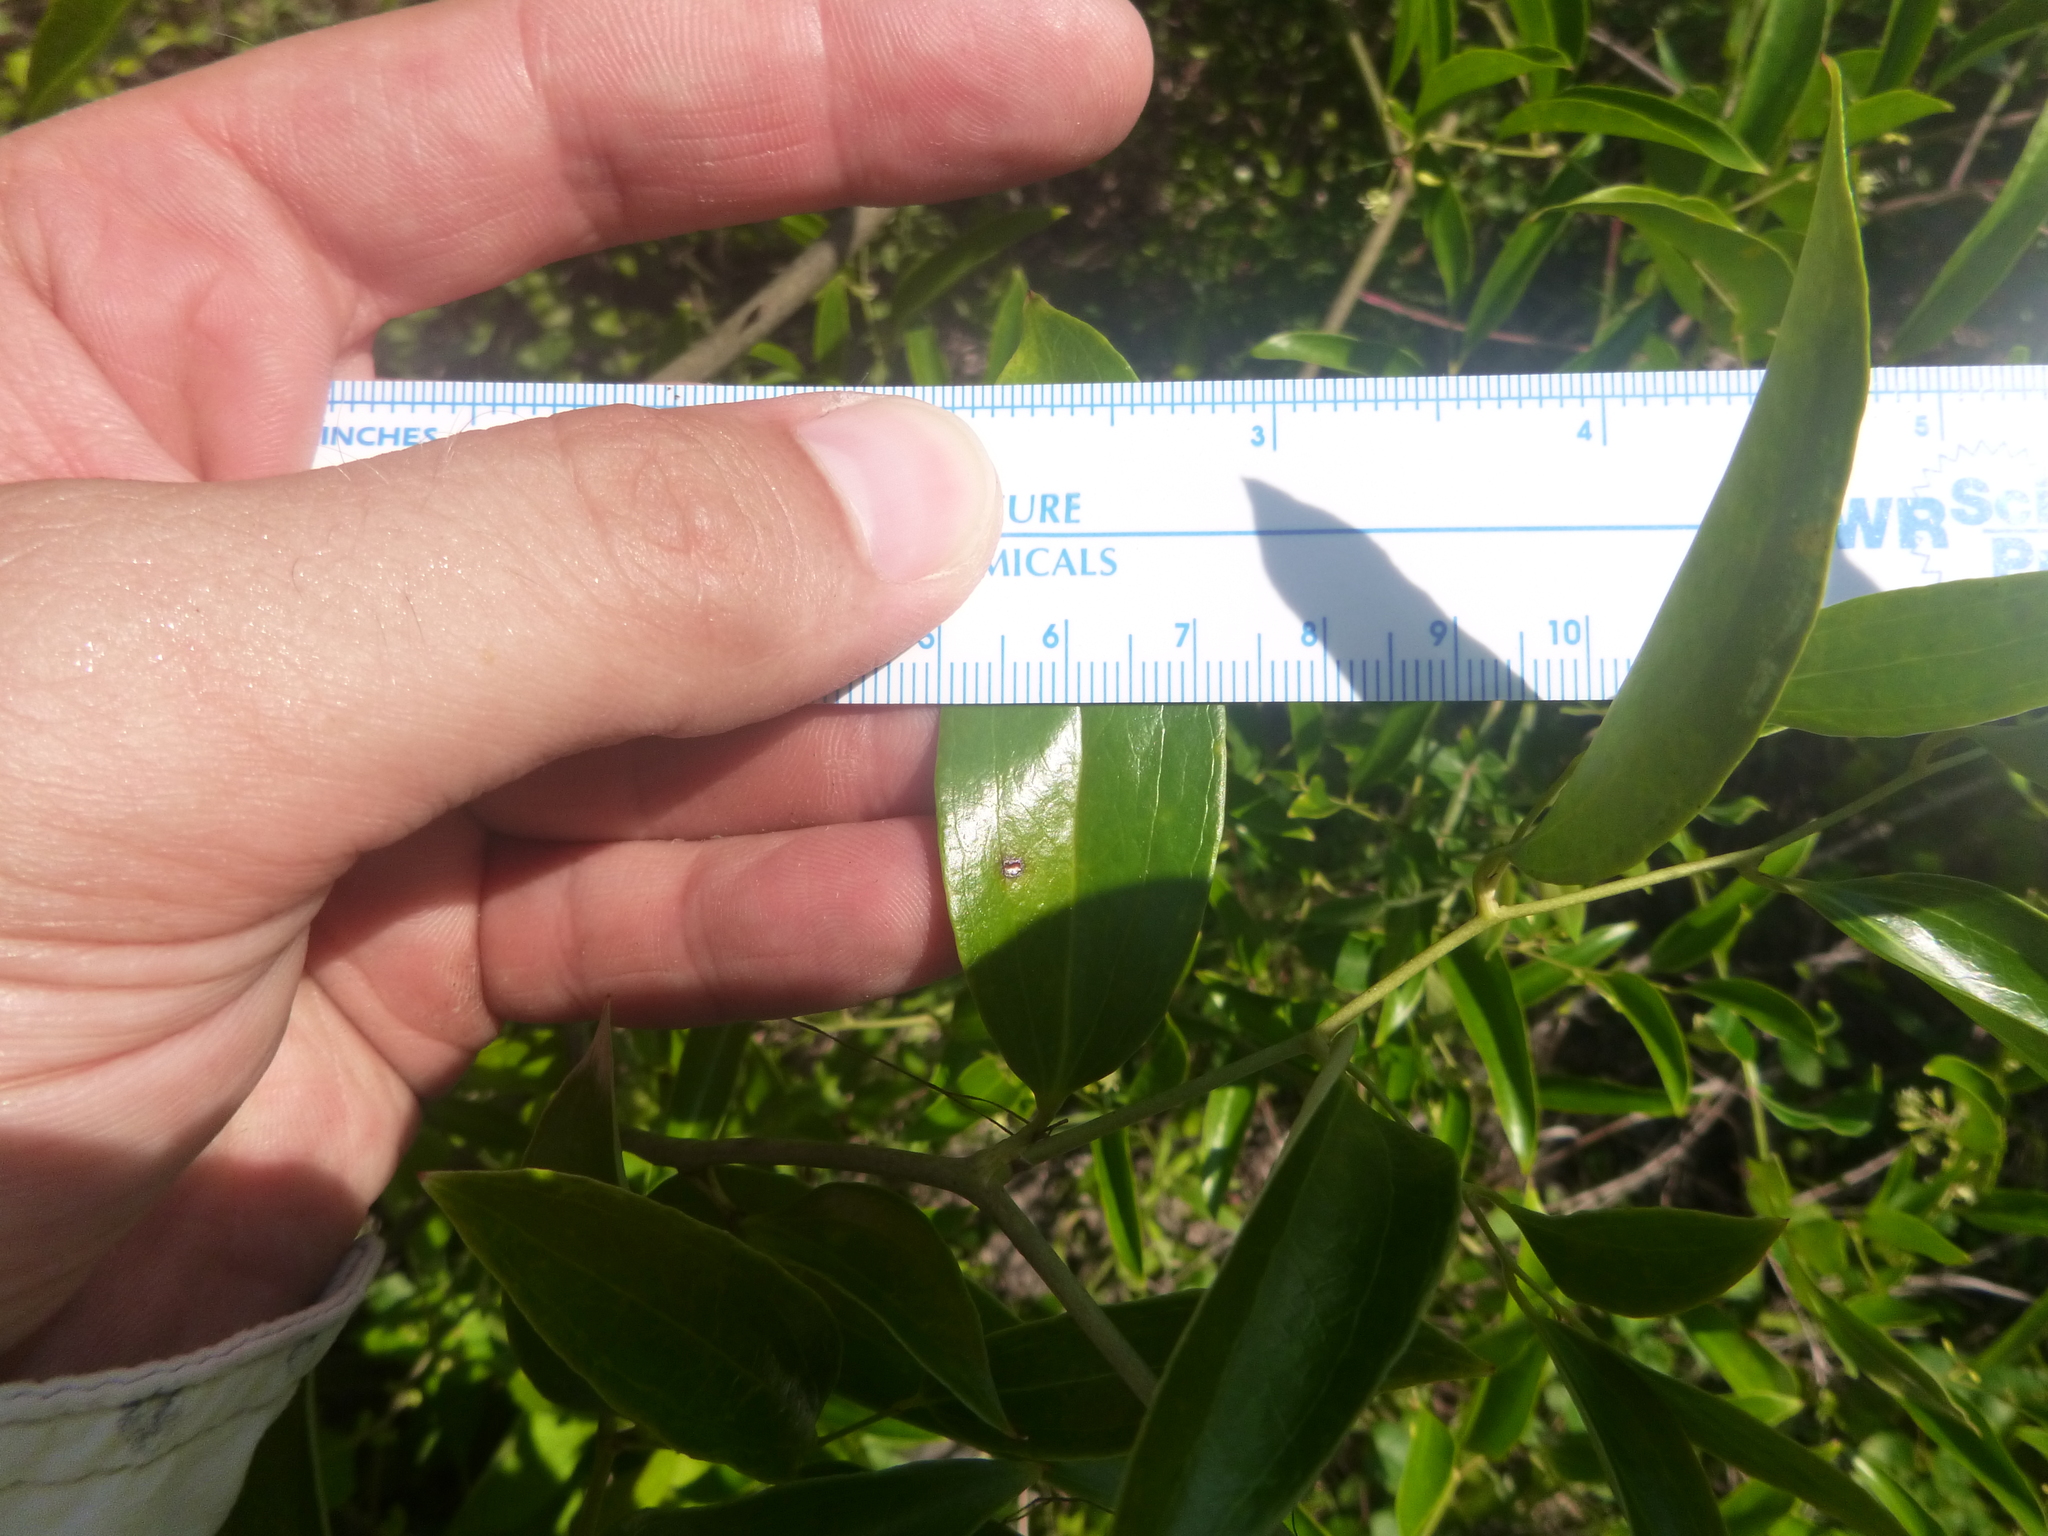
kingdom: Plantae
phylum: Tracheophyta
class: Liliopsida
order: Liliales
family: Smilacaceae
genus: Smilax
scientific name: Smilax maritima
